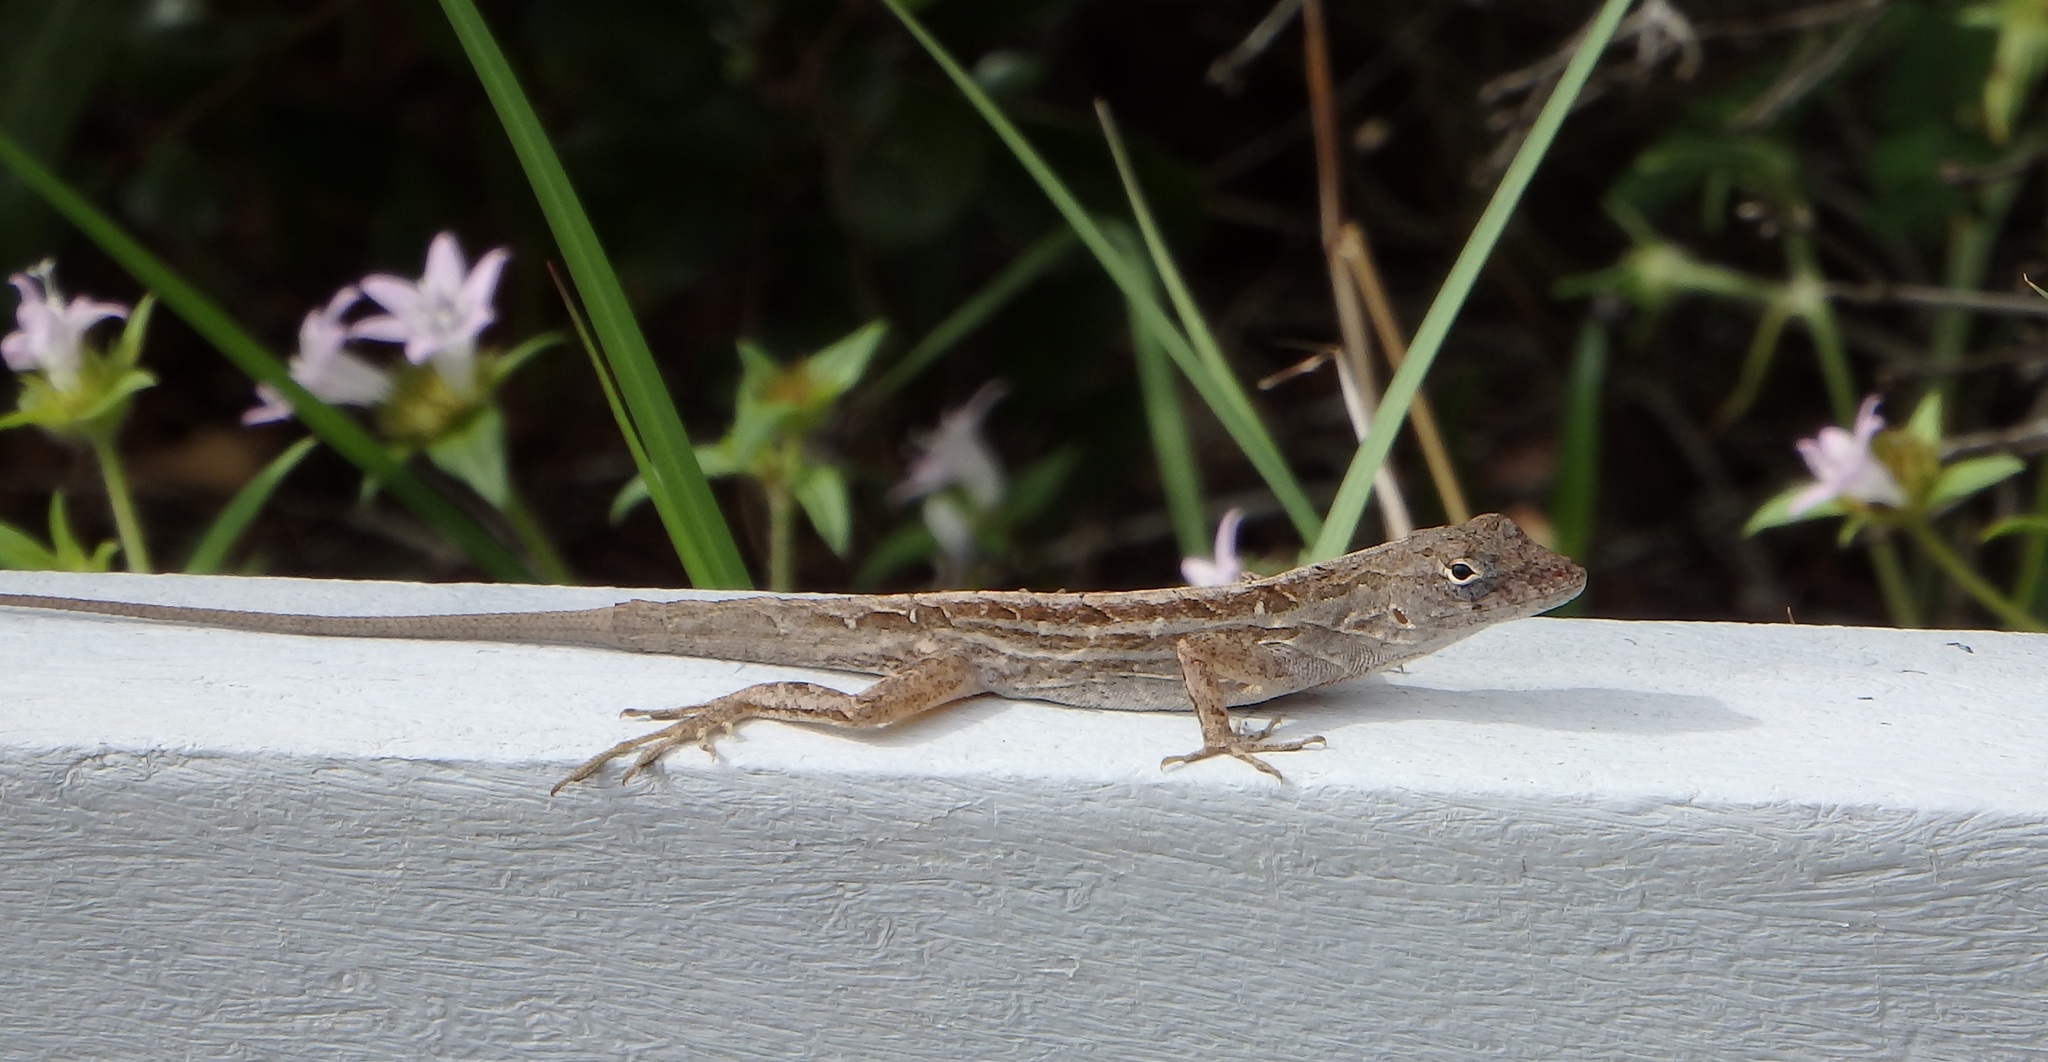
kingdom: Animalia
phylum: Chordata
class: Squamata
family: Dactyloidae
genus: Anolis
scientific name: Anolis sagrei
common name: Brown anole
